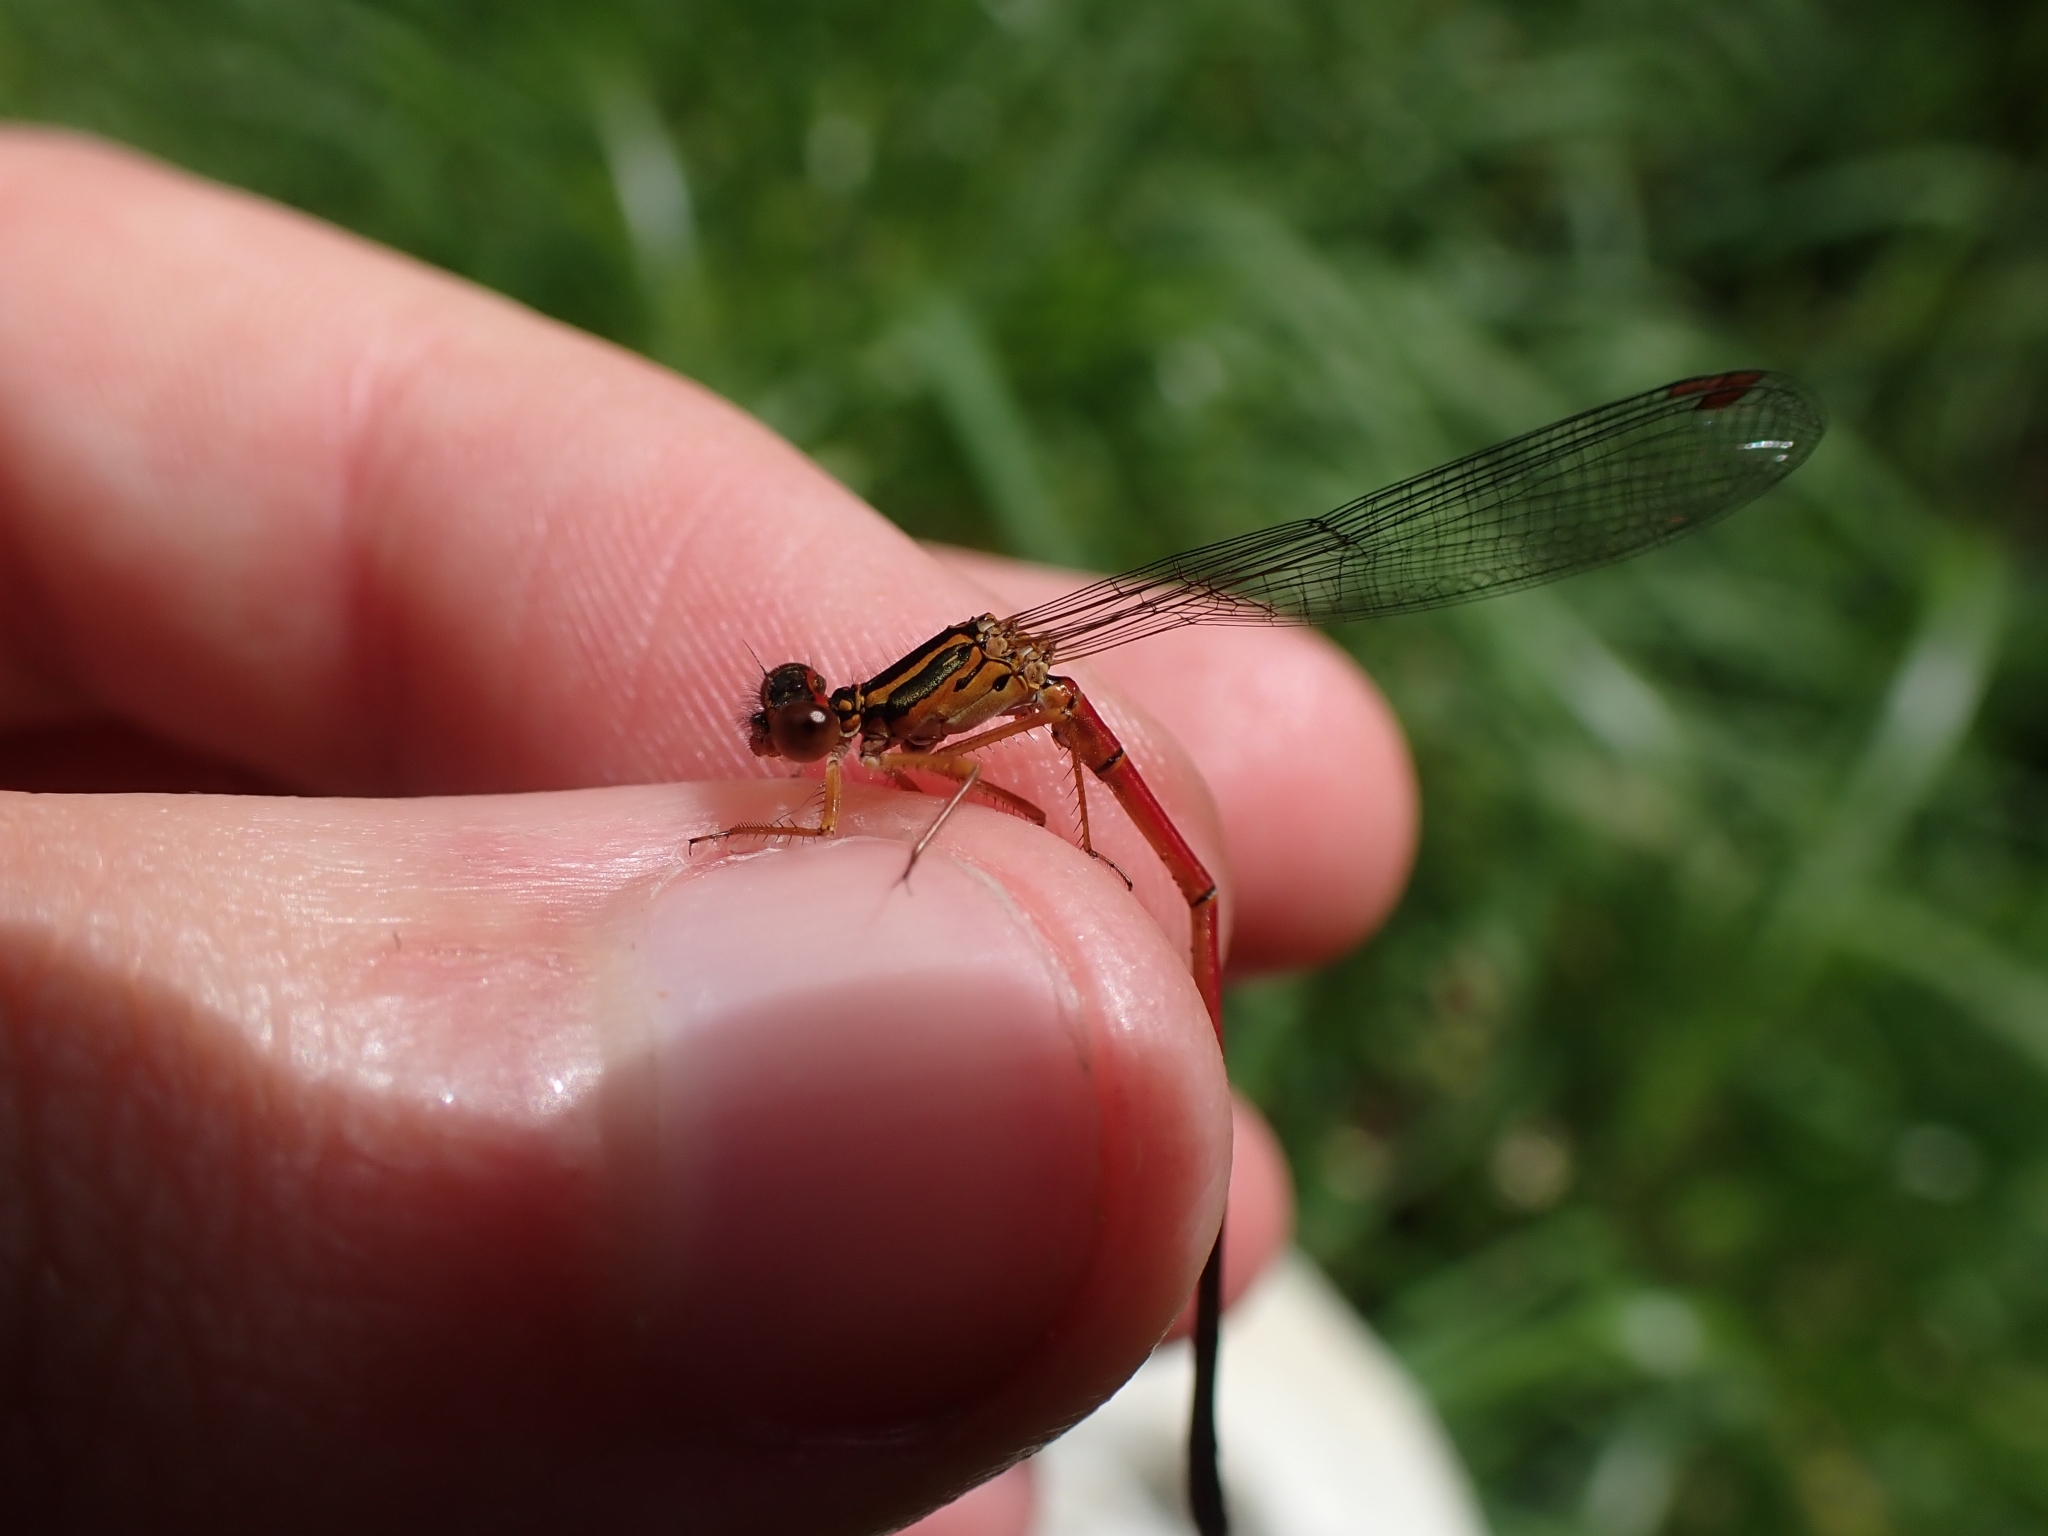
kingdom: Animalia
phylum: Arthropoda
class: Insecta
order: Odonata
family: Coenagrionidae
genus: Xanthocnemis
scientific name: Xanthocnemis zealandica
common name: Common redcoat damselfly
